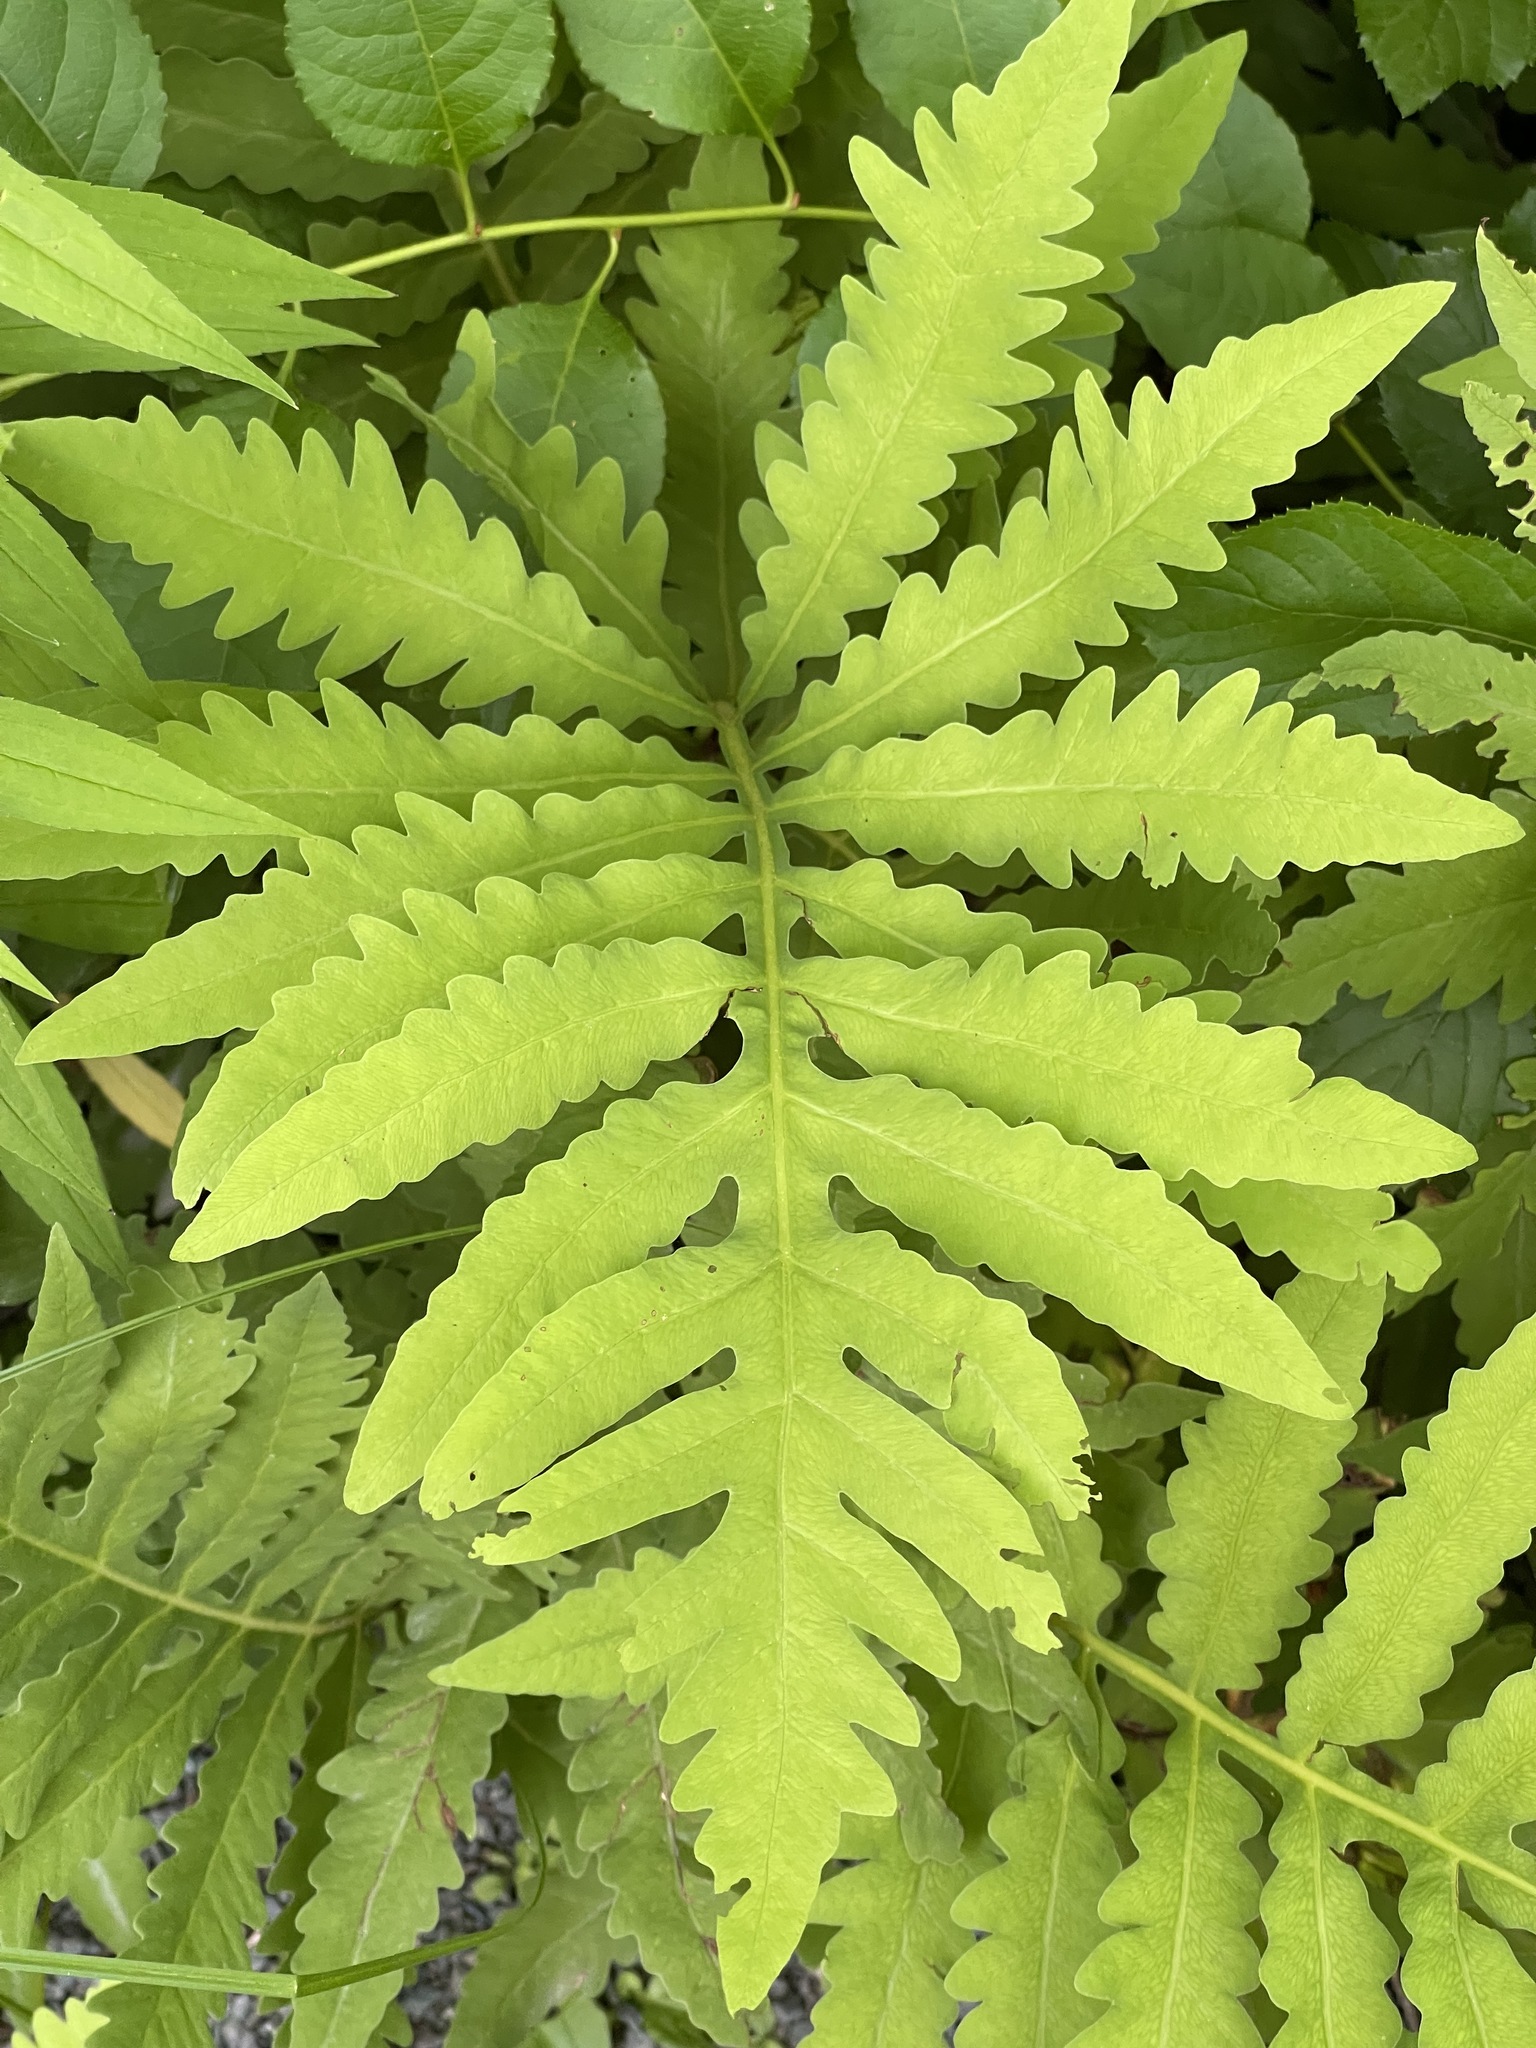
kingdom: Plantae
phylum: Tracheophyta
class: Polypodiopsida
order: Polypodiales
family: Onocleaceae
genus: Onoclea
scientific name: Onoclea sensibilis
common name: Sensitive fern
